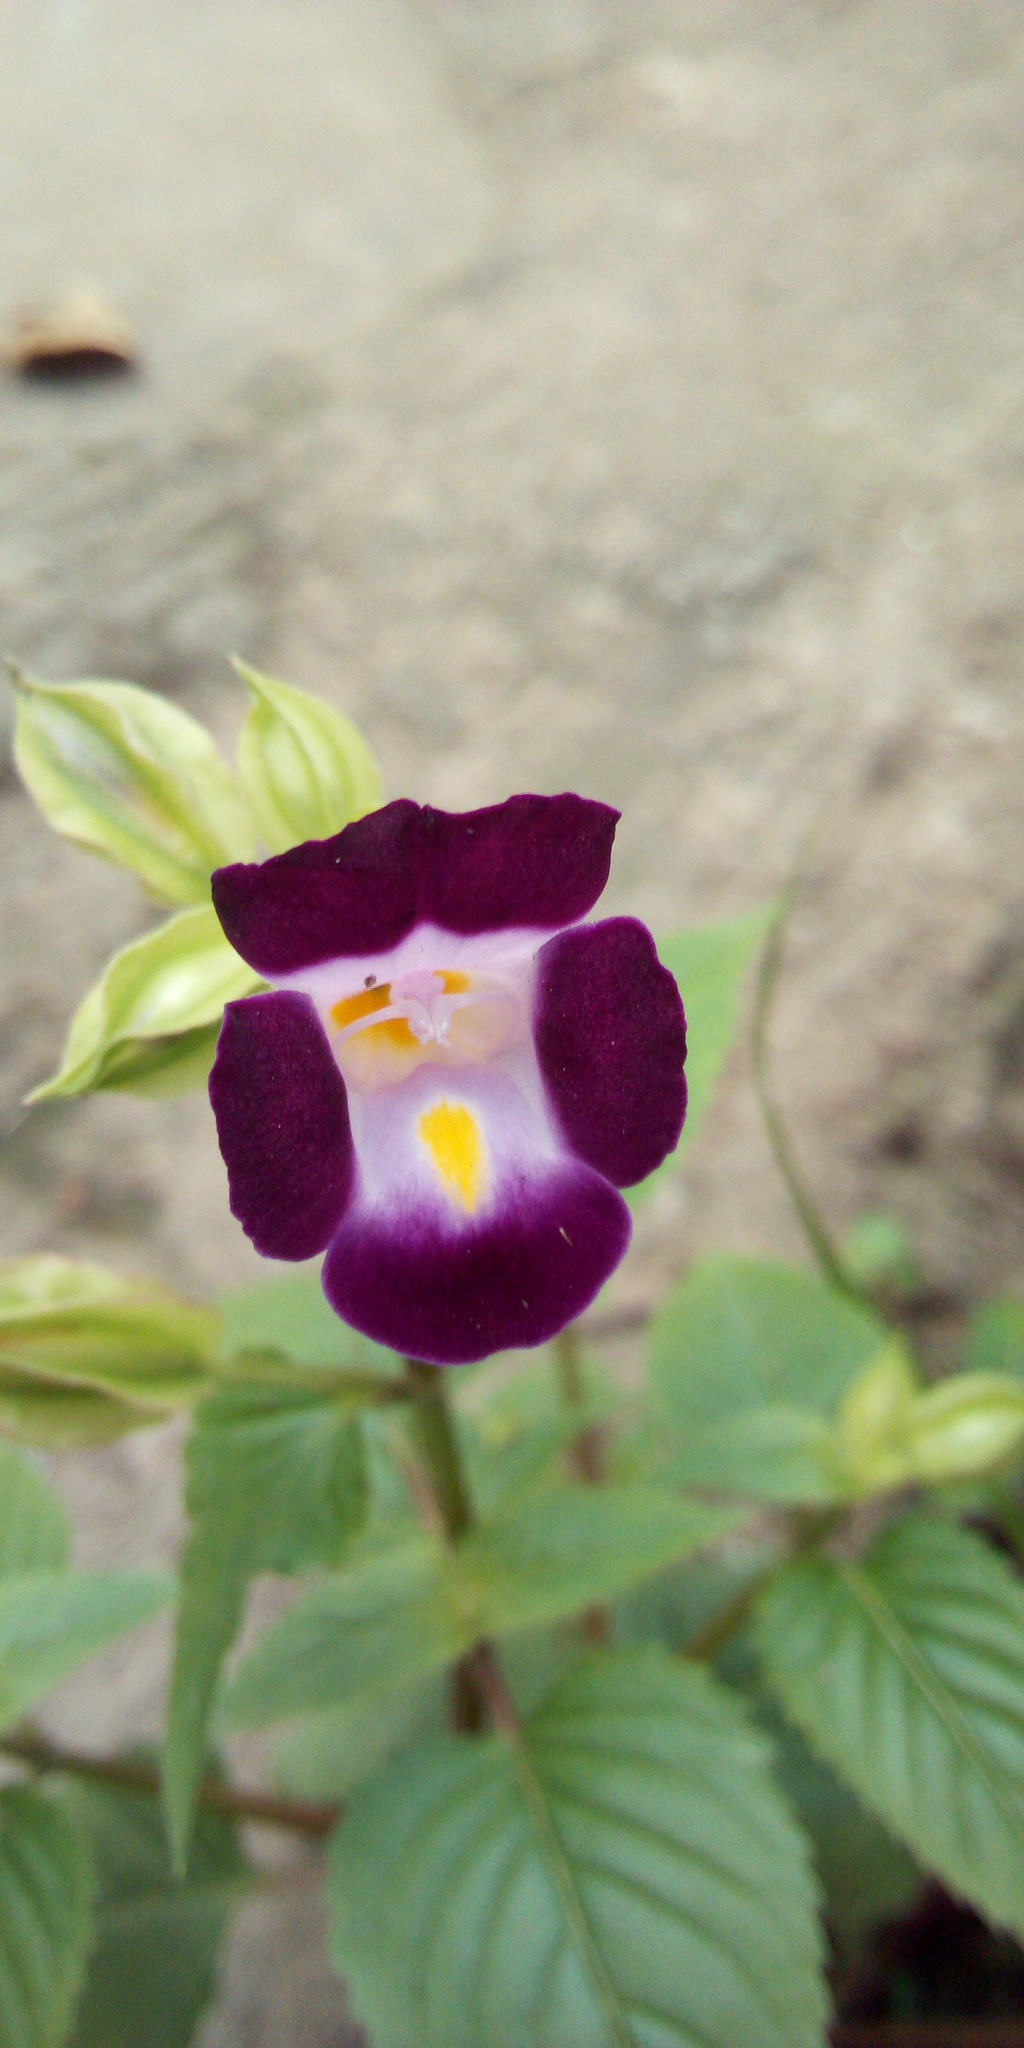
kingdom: Plantae
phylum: Tracheophyta
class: Magnoliopsida
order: Lamiales
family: Linderniaceae
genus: Torenia
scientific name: Torenia fournieri
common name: Bluewings
